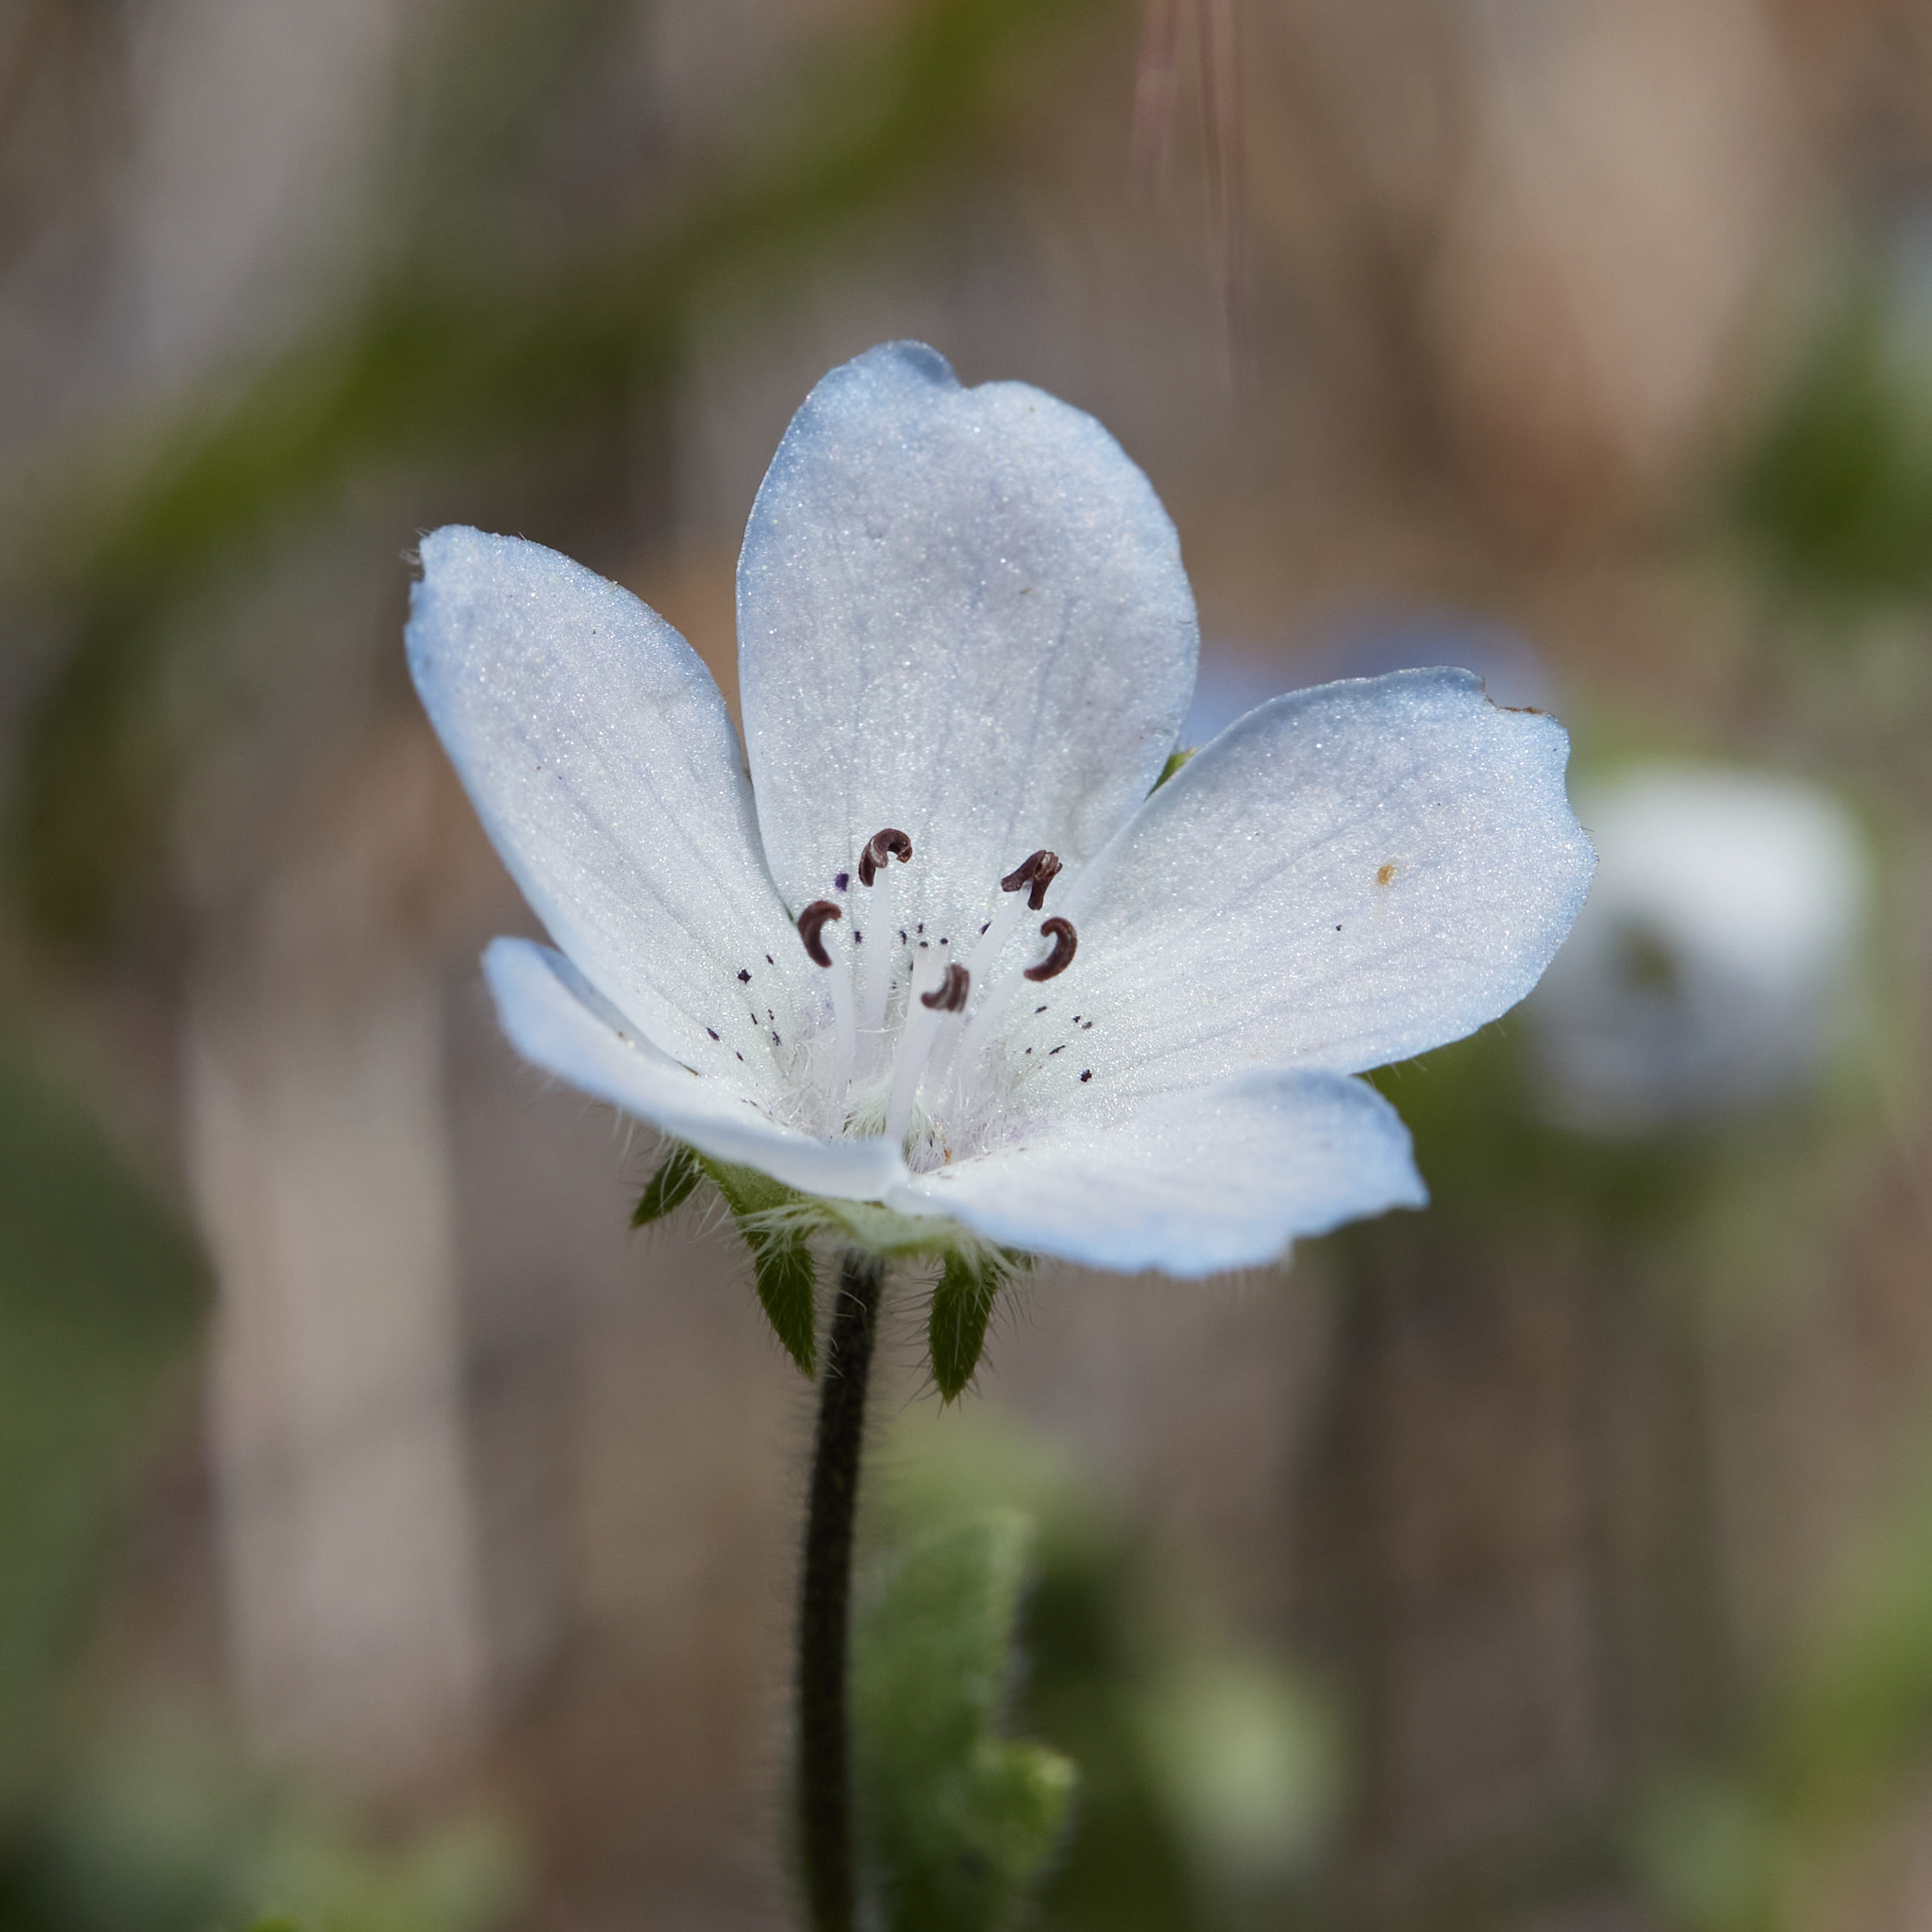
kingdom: Plantae
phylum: Tracheophyta
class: Magnoliopsida
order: Boraginales
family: Hydrophyllaceae
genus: Nemophila
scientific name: Nemophila menziesii
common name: Baby's-blue-eyes
